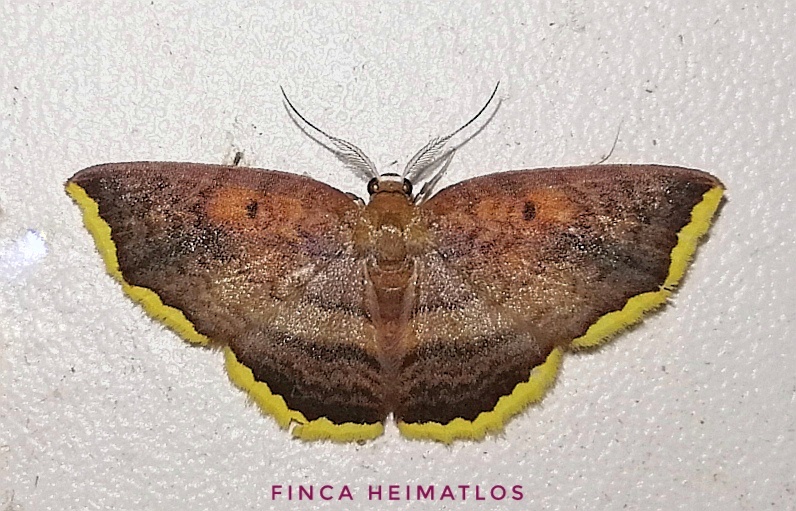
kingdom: Animalia
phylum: Arthropoda
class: Insecta
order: Lepidoptera
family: Geometridae
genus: Eois
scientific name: Eois catana
